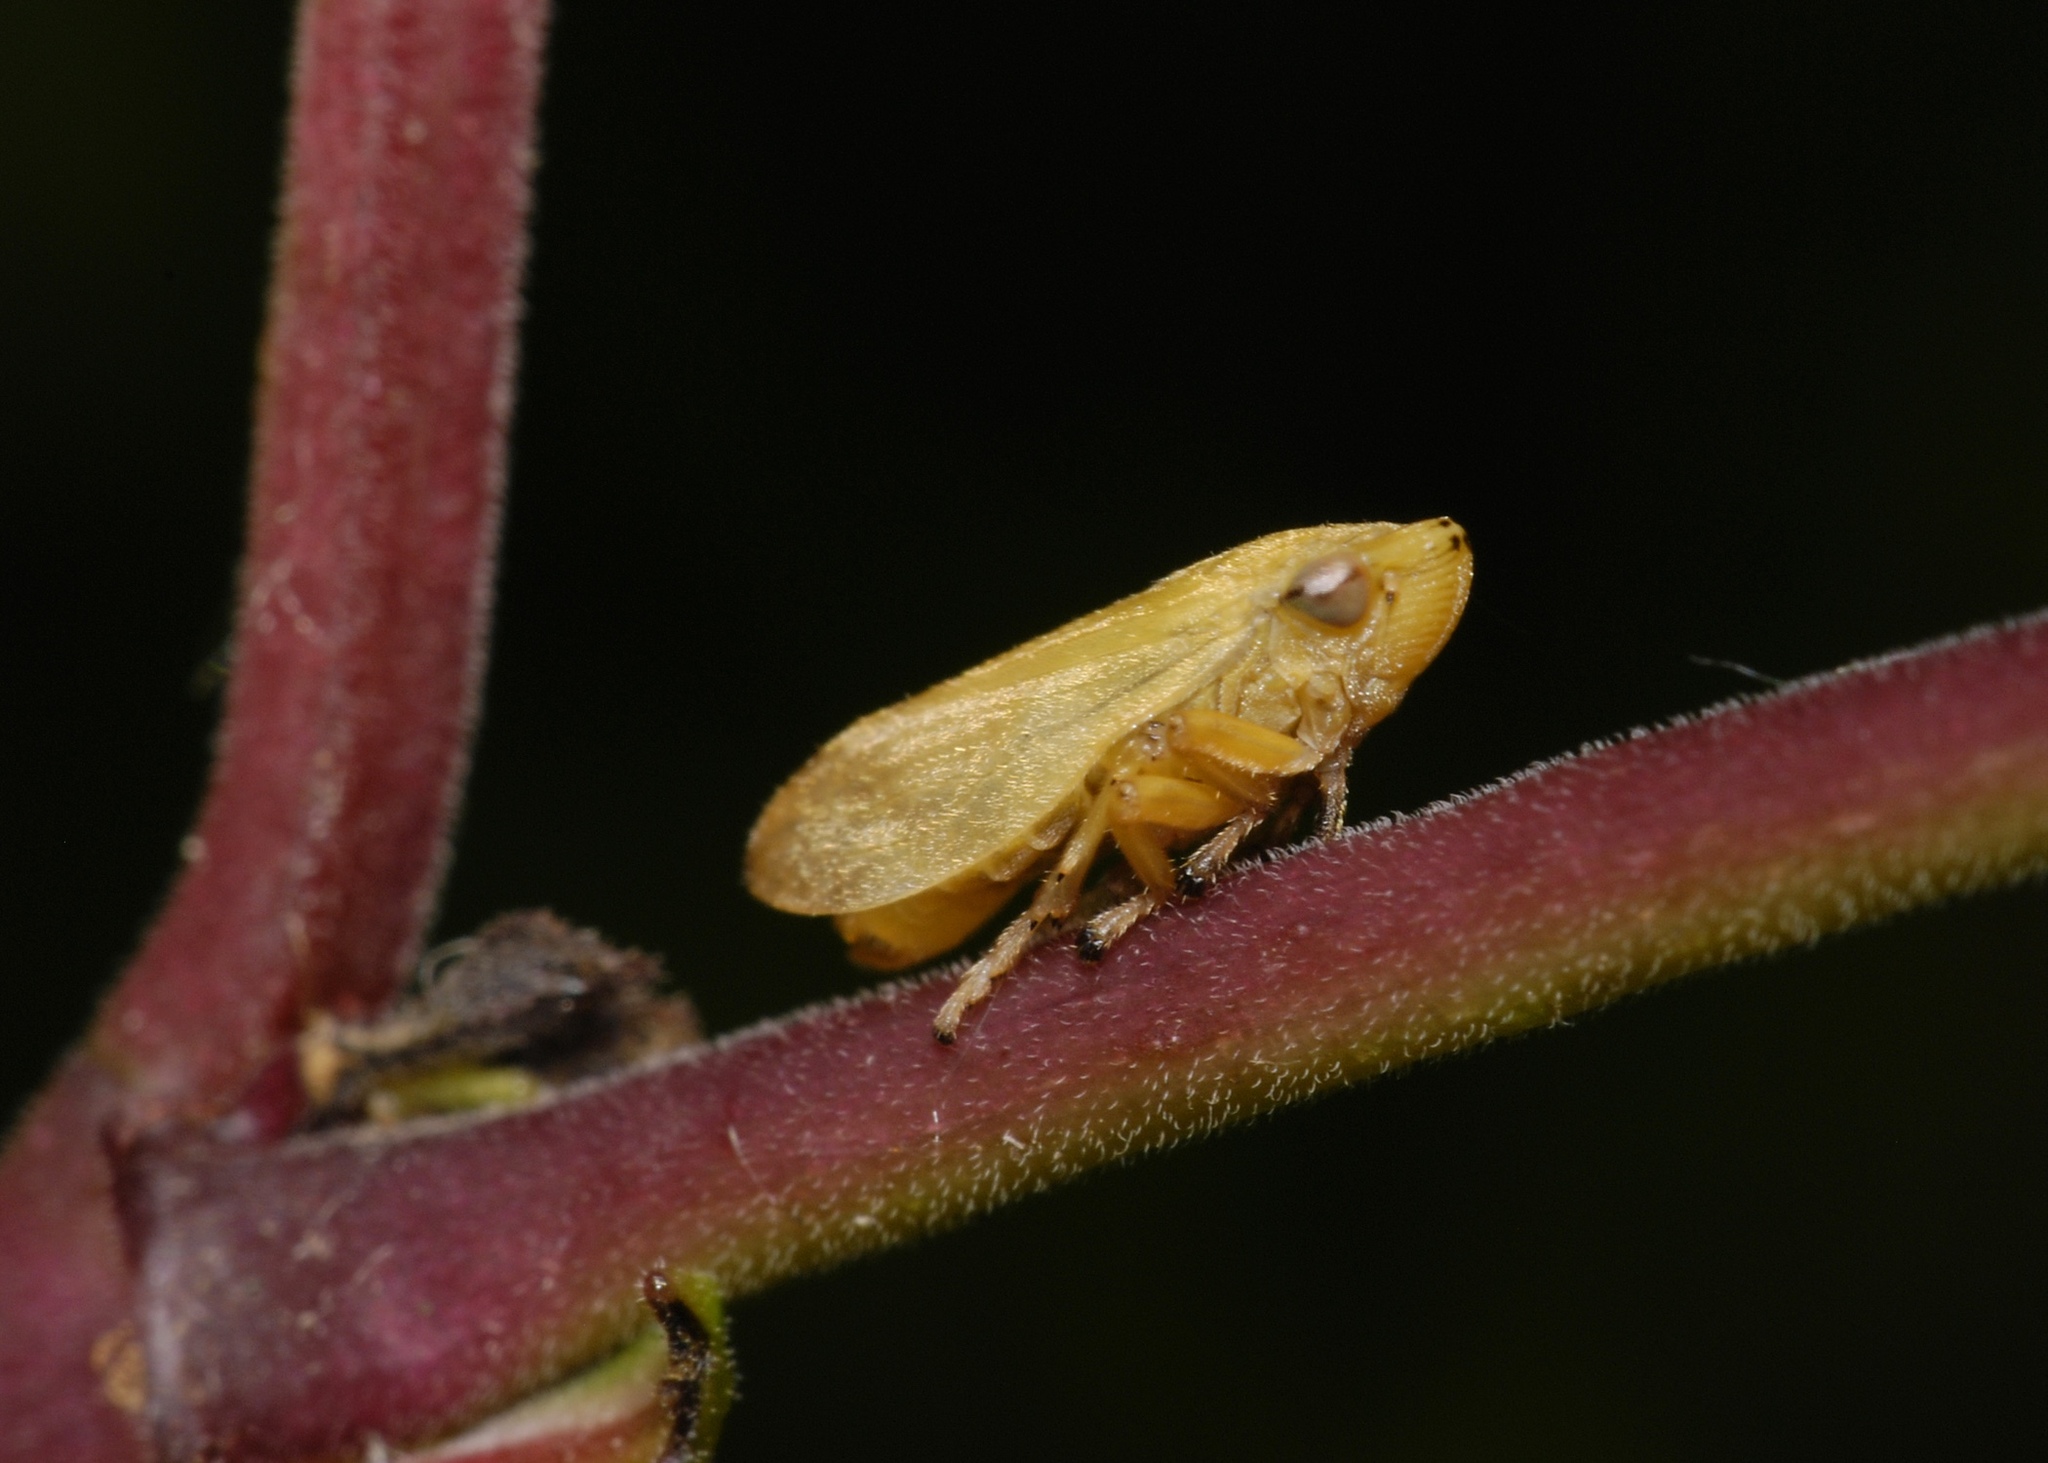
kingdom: Animalia
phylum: Arthropoda
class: Insecta
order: Hemiptera
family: Aphrophoridae
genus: Philaenus
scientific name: Philaenus spumarius
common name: Meadow spittlebug
